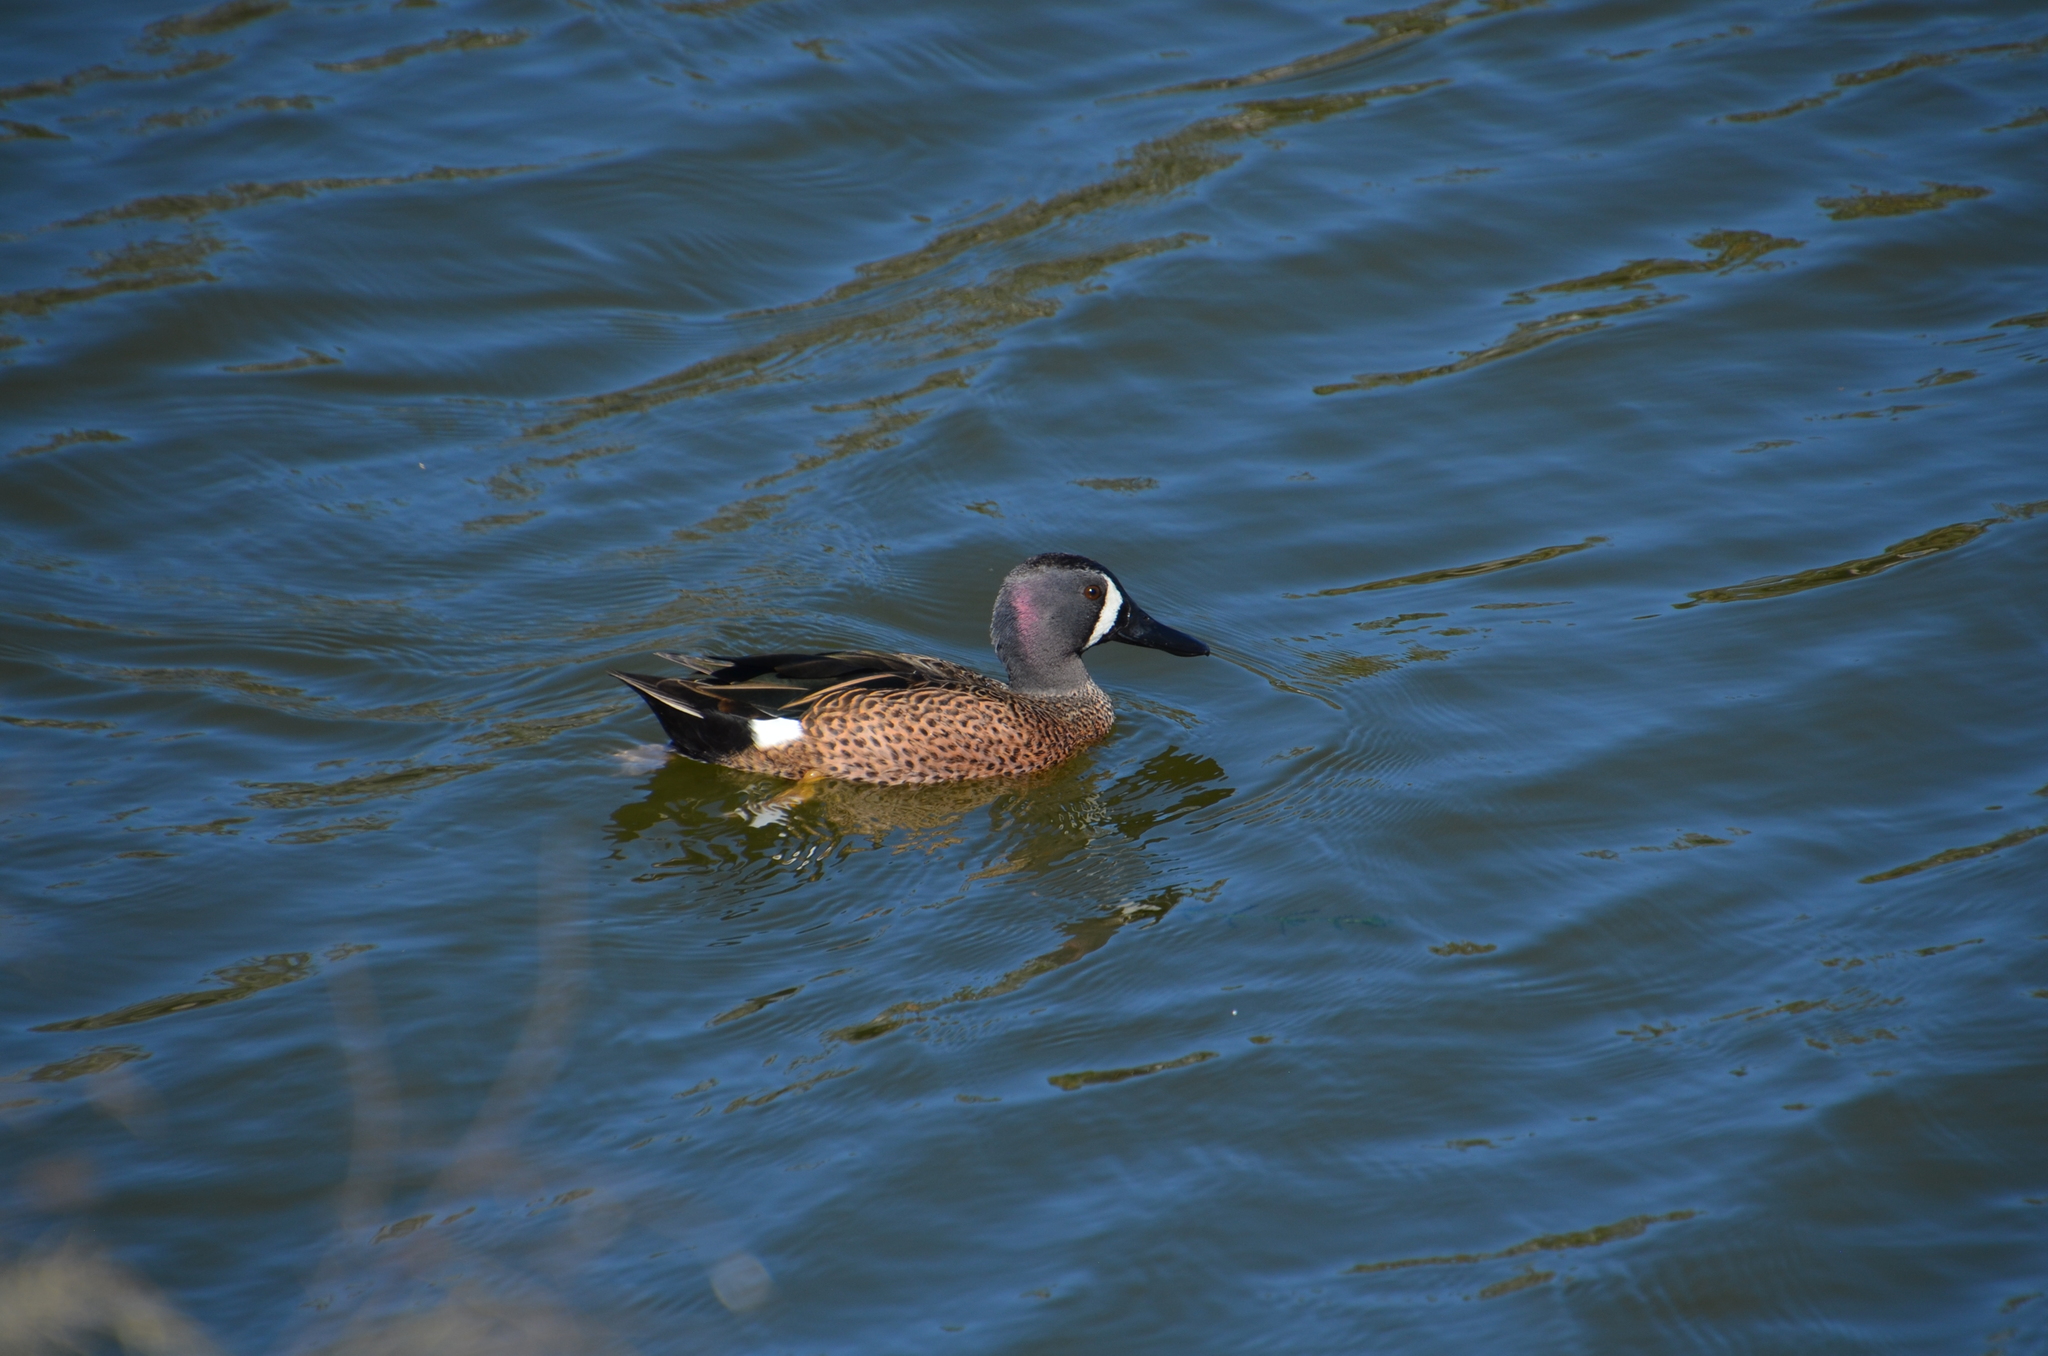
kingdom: Animalia
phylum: Chordata
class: Aves
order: Anseriformes
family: Anatidae
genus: Spatula
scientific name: Spatula discors
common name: Blue-winged teal
